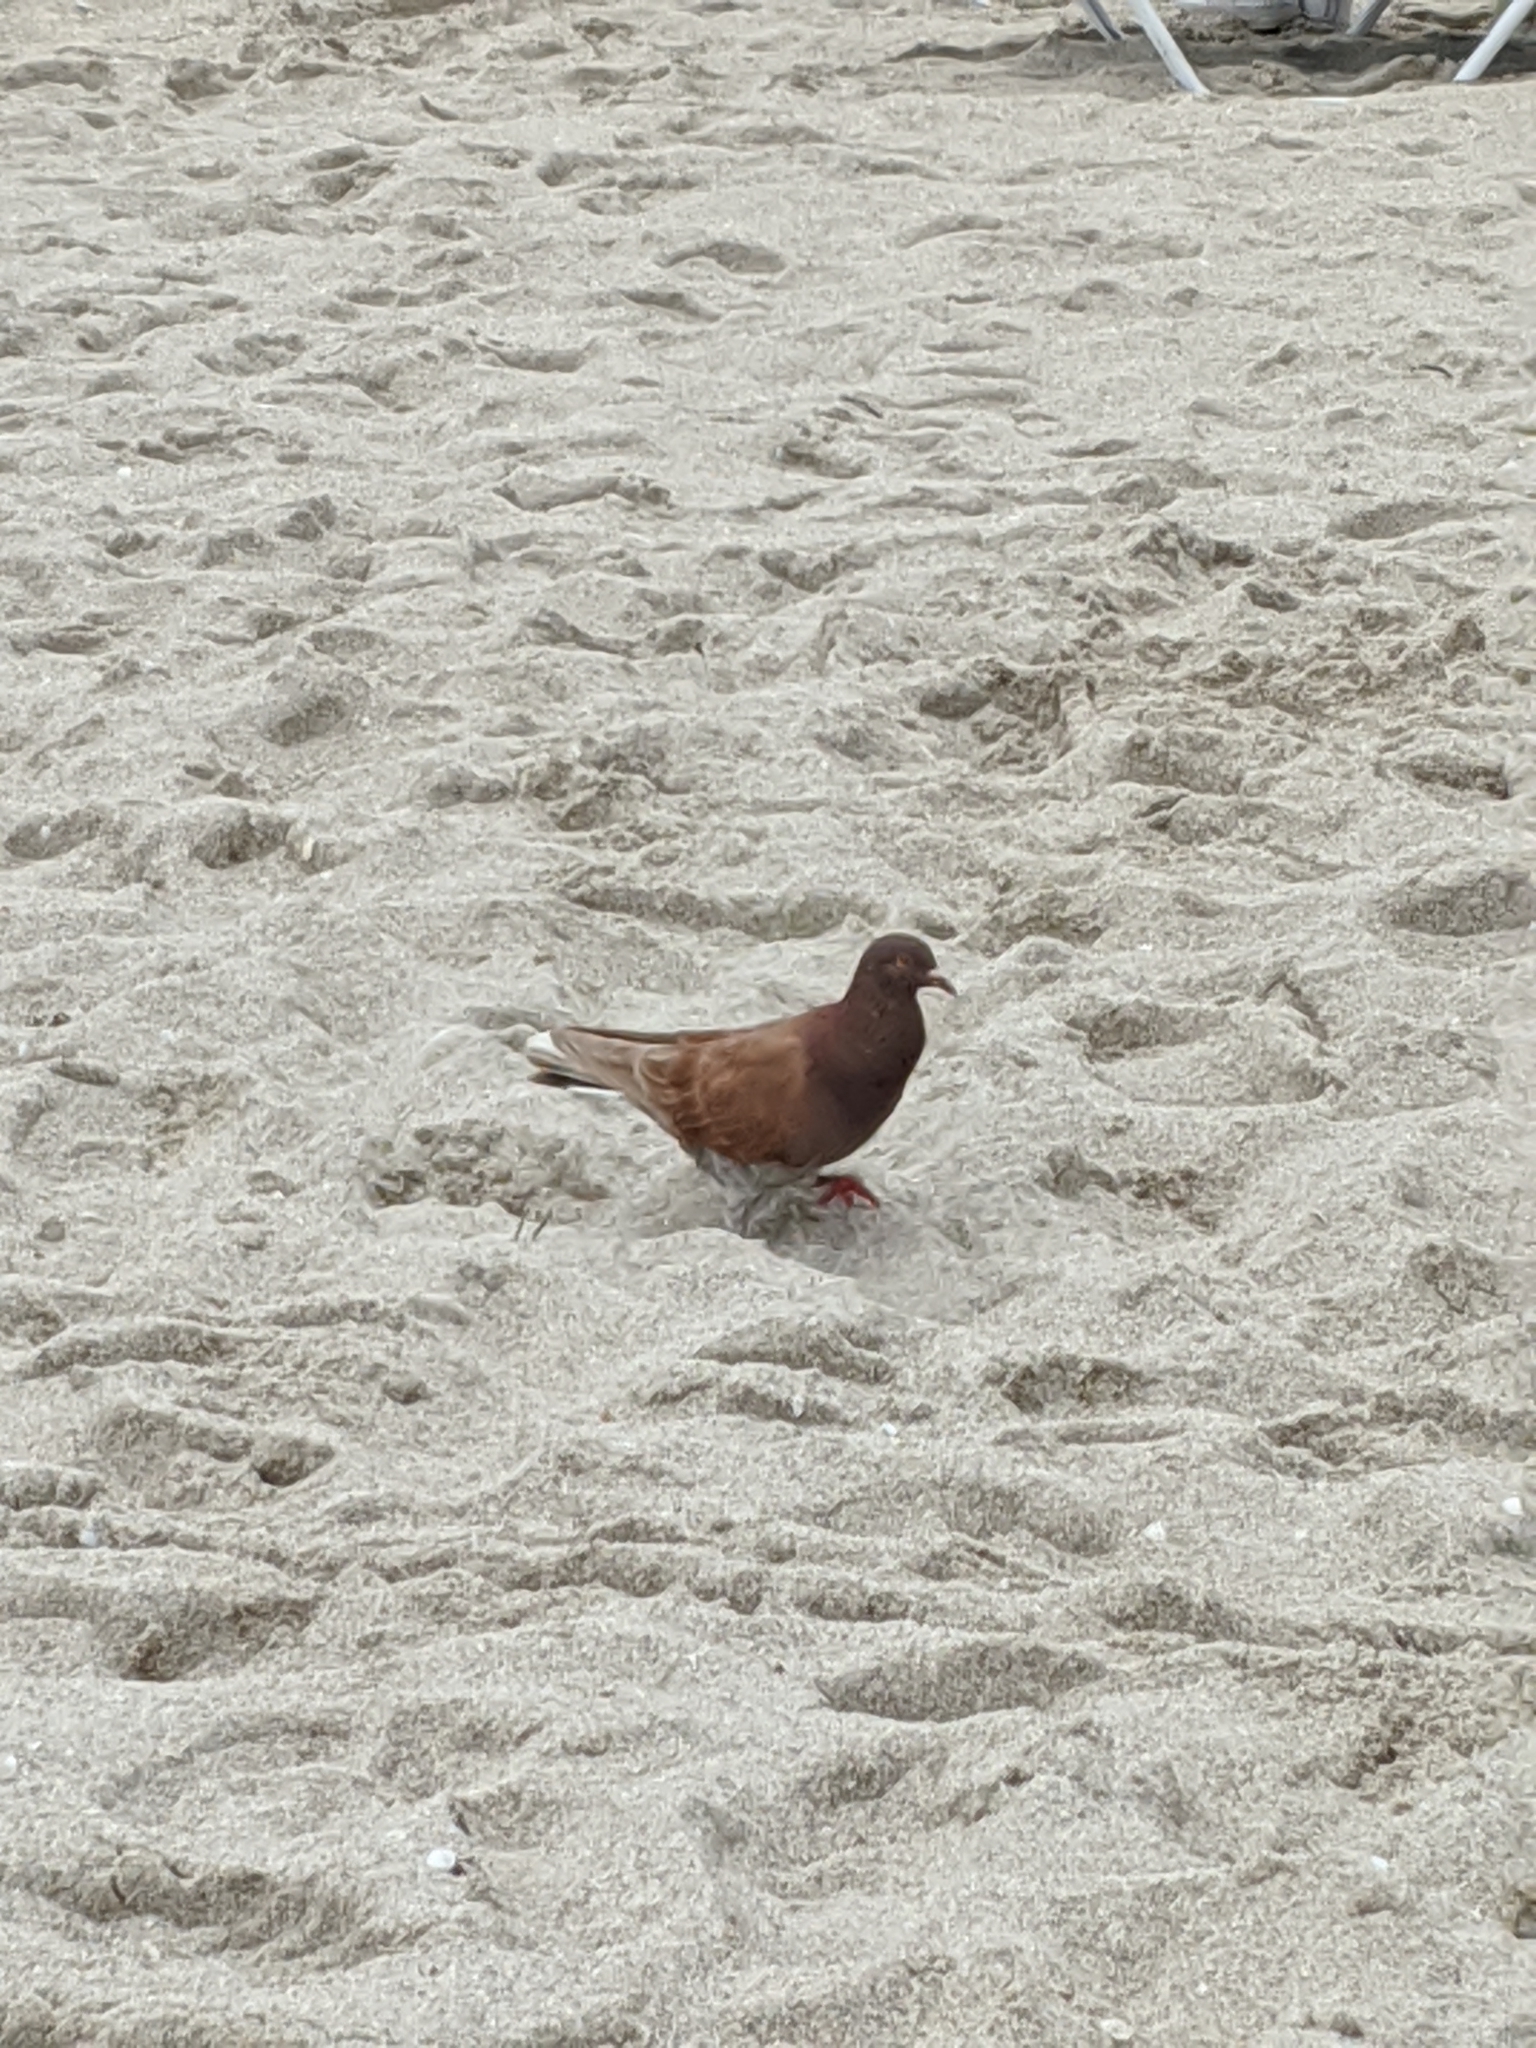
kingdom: Animalia
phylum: Chordata
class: Aves
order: Columbiformes
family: Columbidae
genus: Columba
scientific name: Columba livia
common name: Rock pigeon
